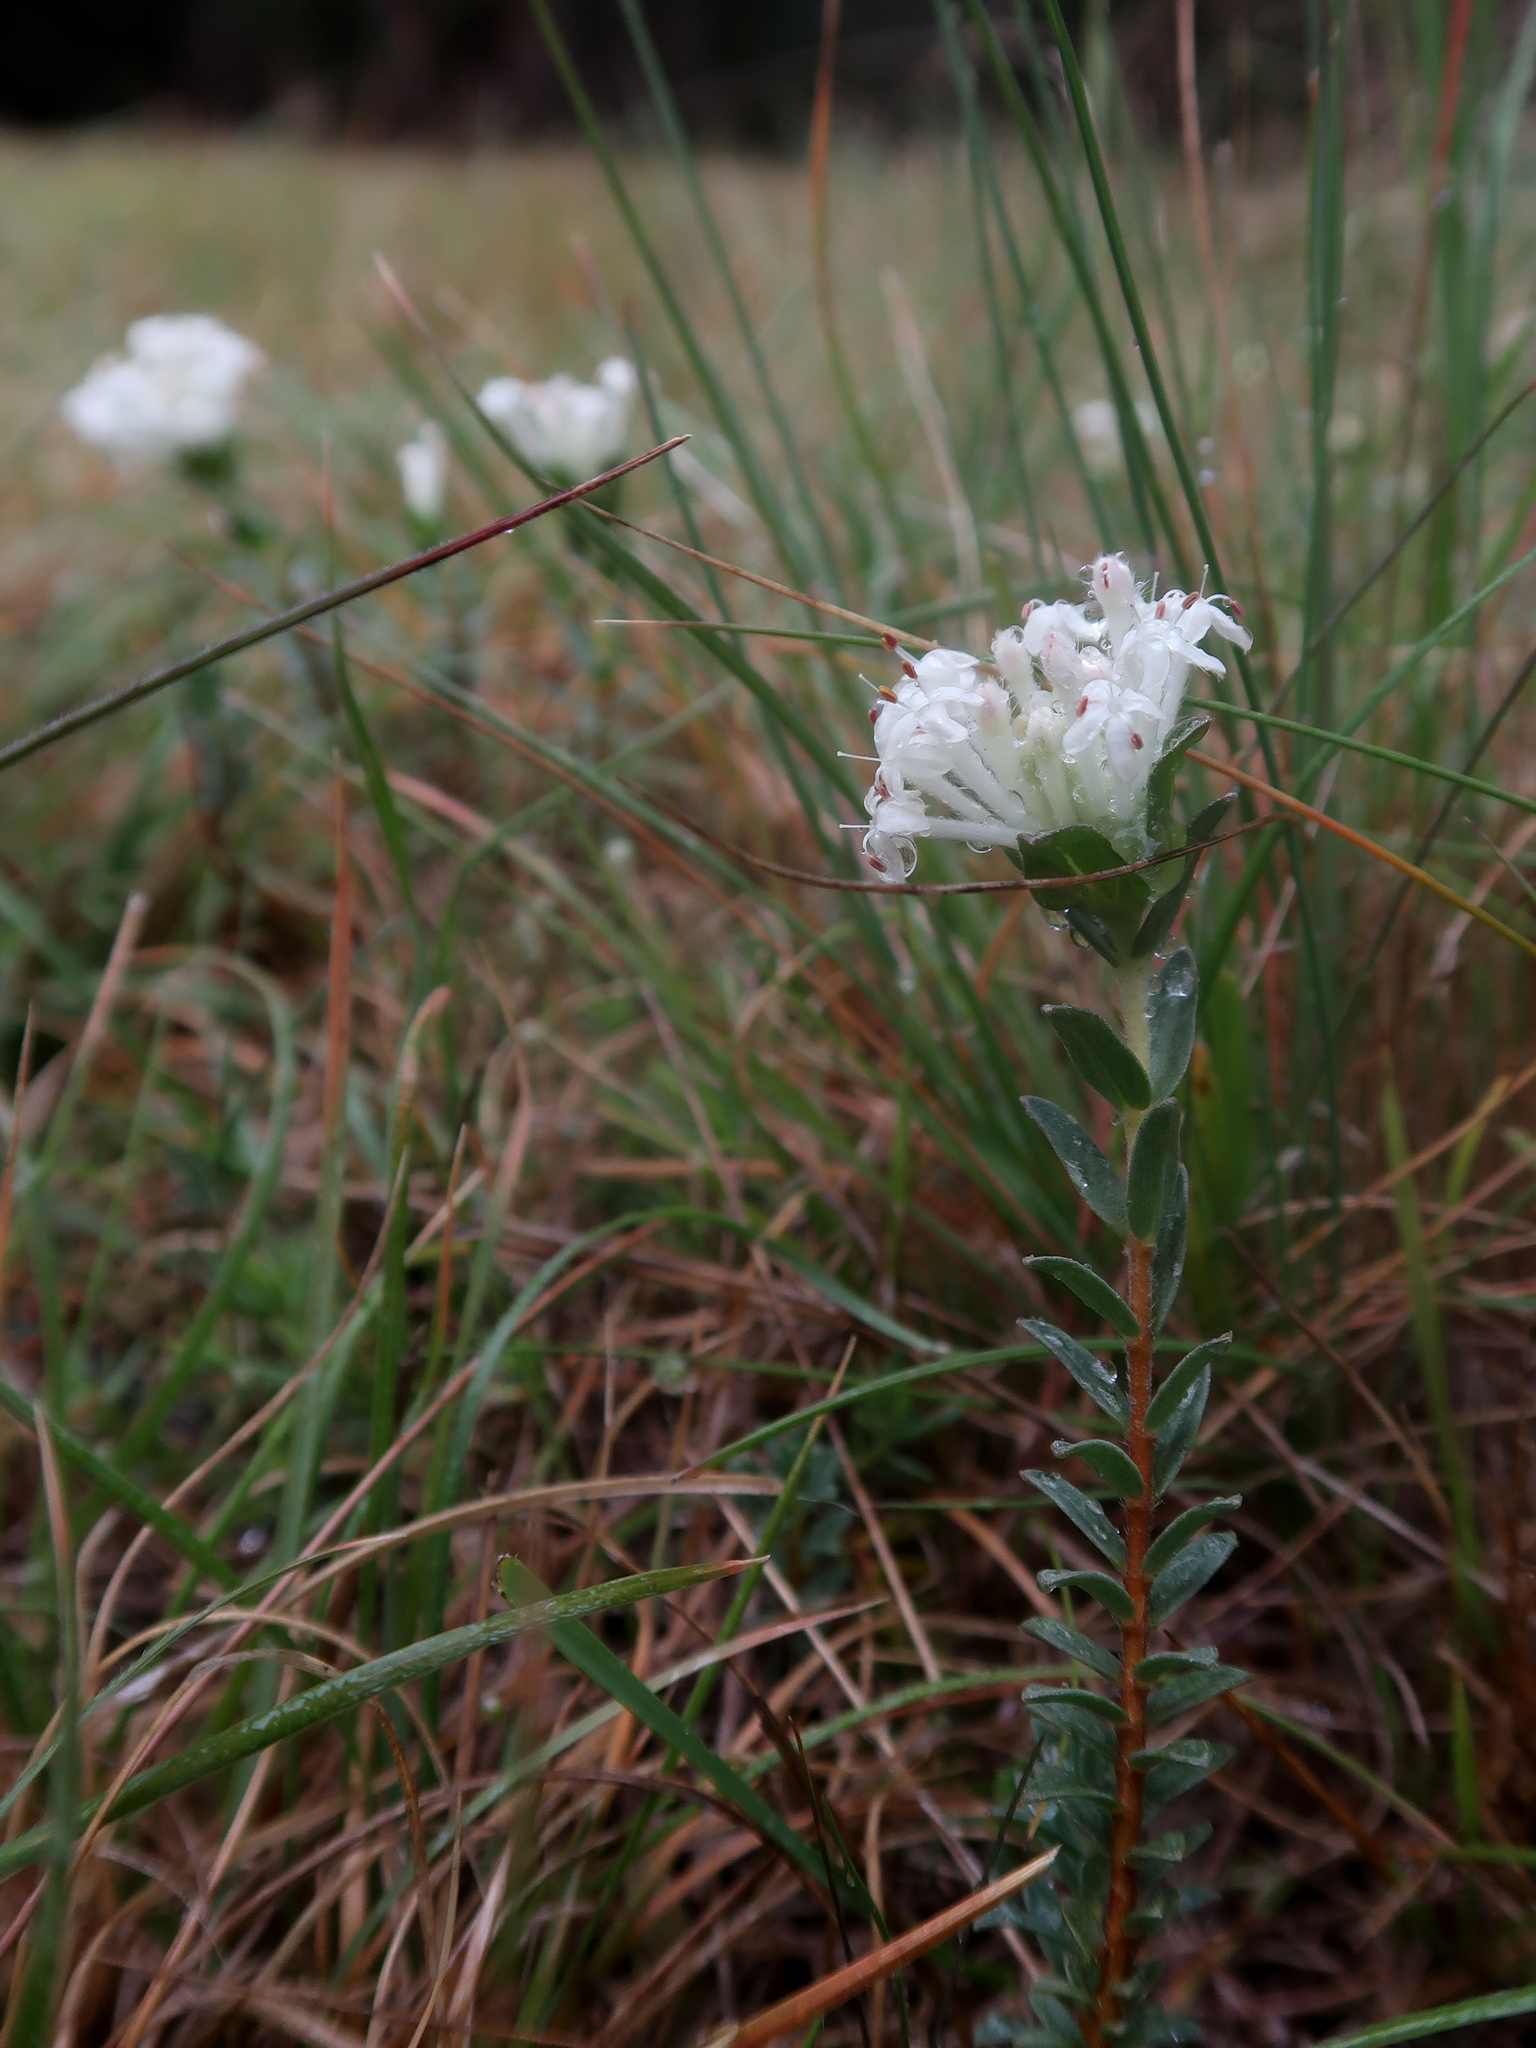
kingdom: Plantae
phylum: Tracheophyta
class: Magnoliopsida
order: Malvales
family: Thymelaeaceae
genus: Pimelea
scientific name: Pimelea humilis
